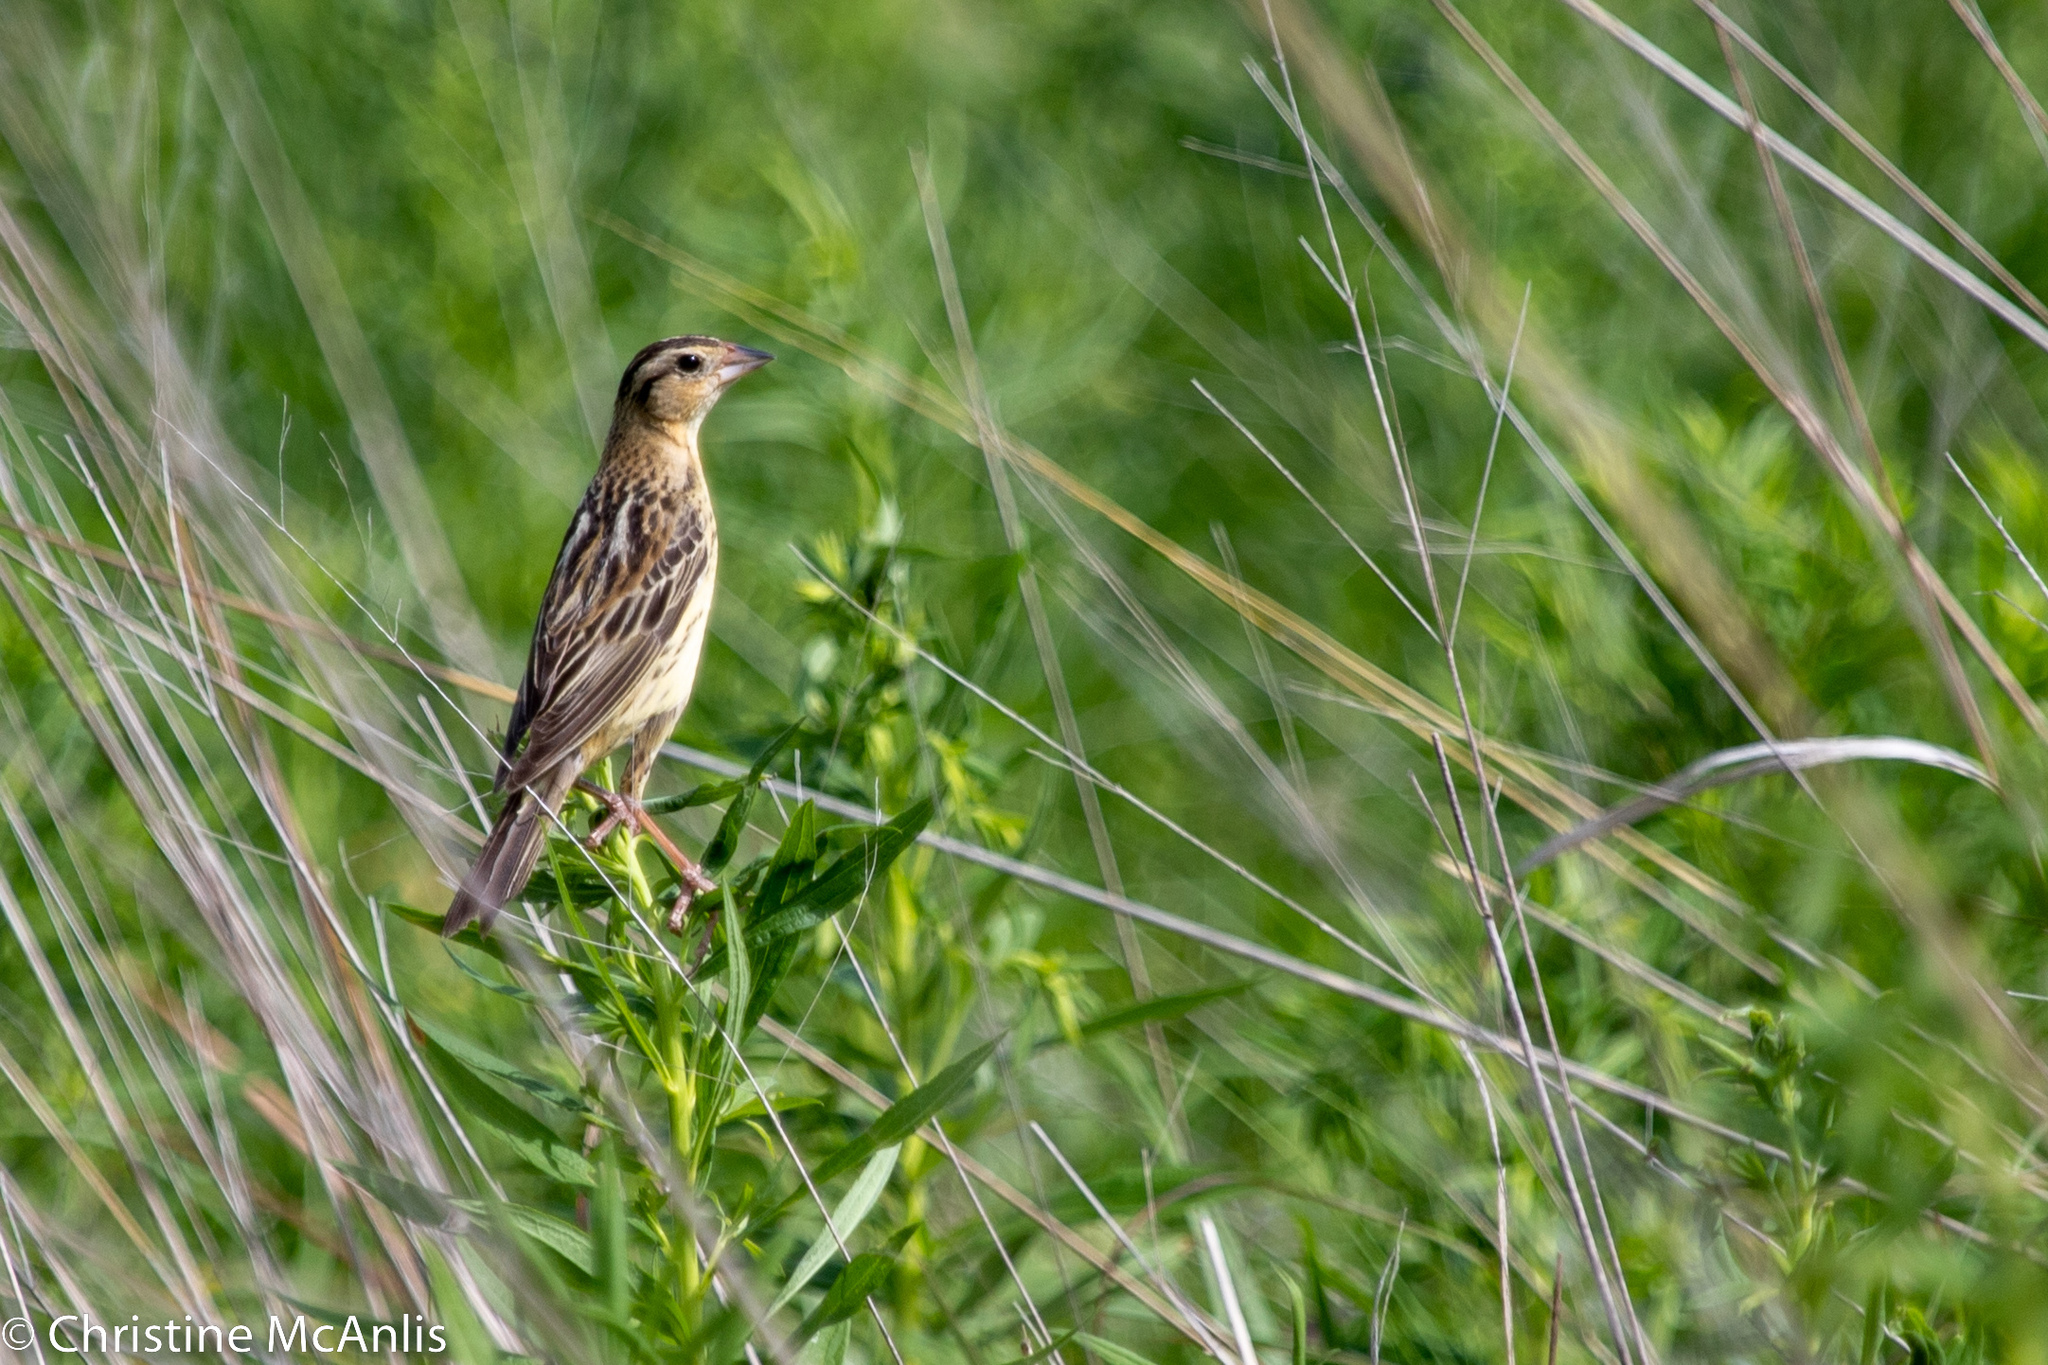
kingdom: Animalia
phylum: Chordata
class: Aves
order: Passeriformes
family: Icteridae
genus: Dolichonyx
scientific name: Dolichonyx oryzivorus
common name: Bobolink
